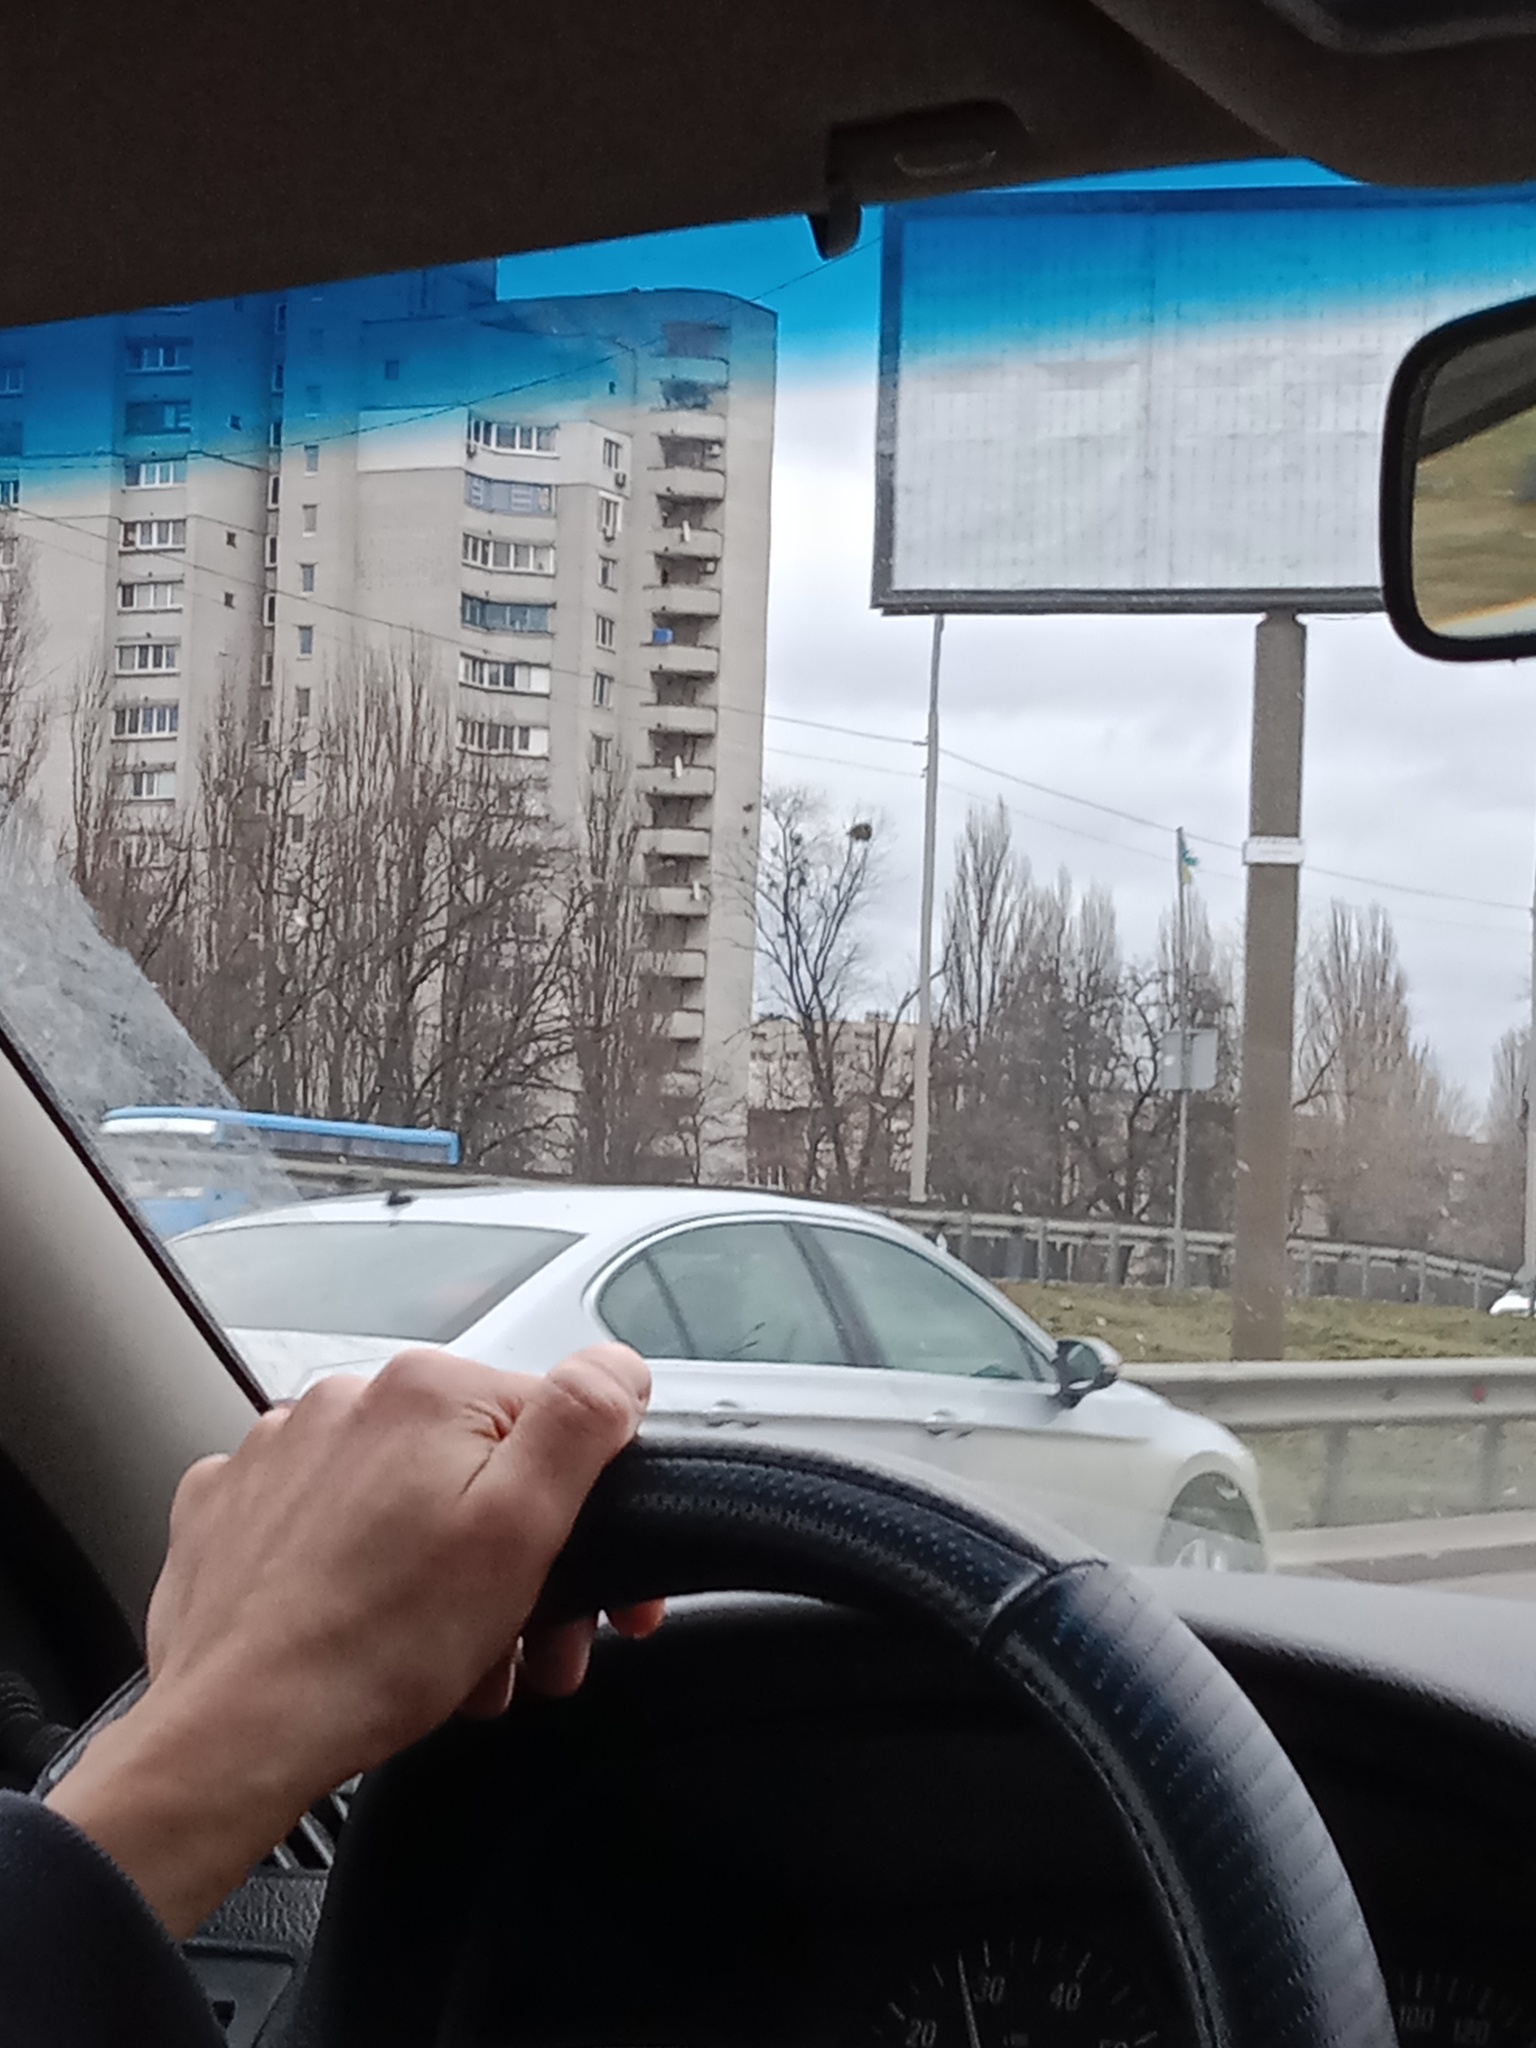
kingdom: Plantae
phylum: Tracheophyta
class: Magnoliopsida
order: Santalales
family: Viscaceae
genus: Viscum
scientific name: Viscum album
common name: Mistletoe
